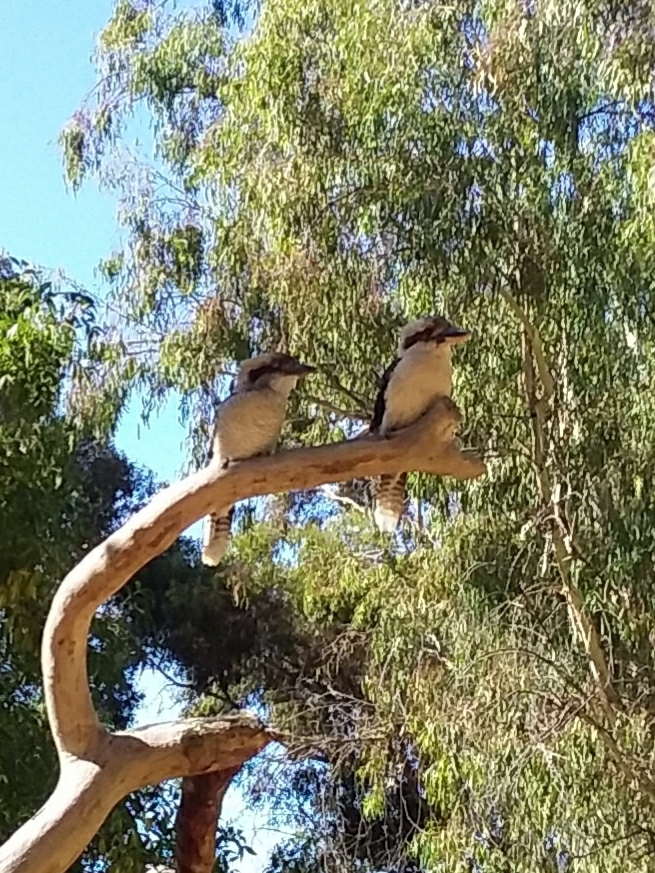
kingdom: Animalia
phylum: Chordata
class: Aves
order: Coraciiformes
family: Alcedinidae
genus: Dacelo
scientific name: Dacelo novaeguineae
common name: Laughing kookaburra
